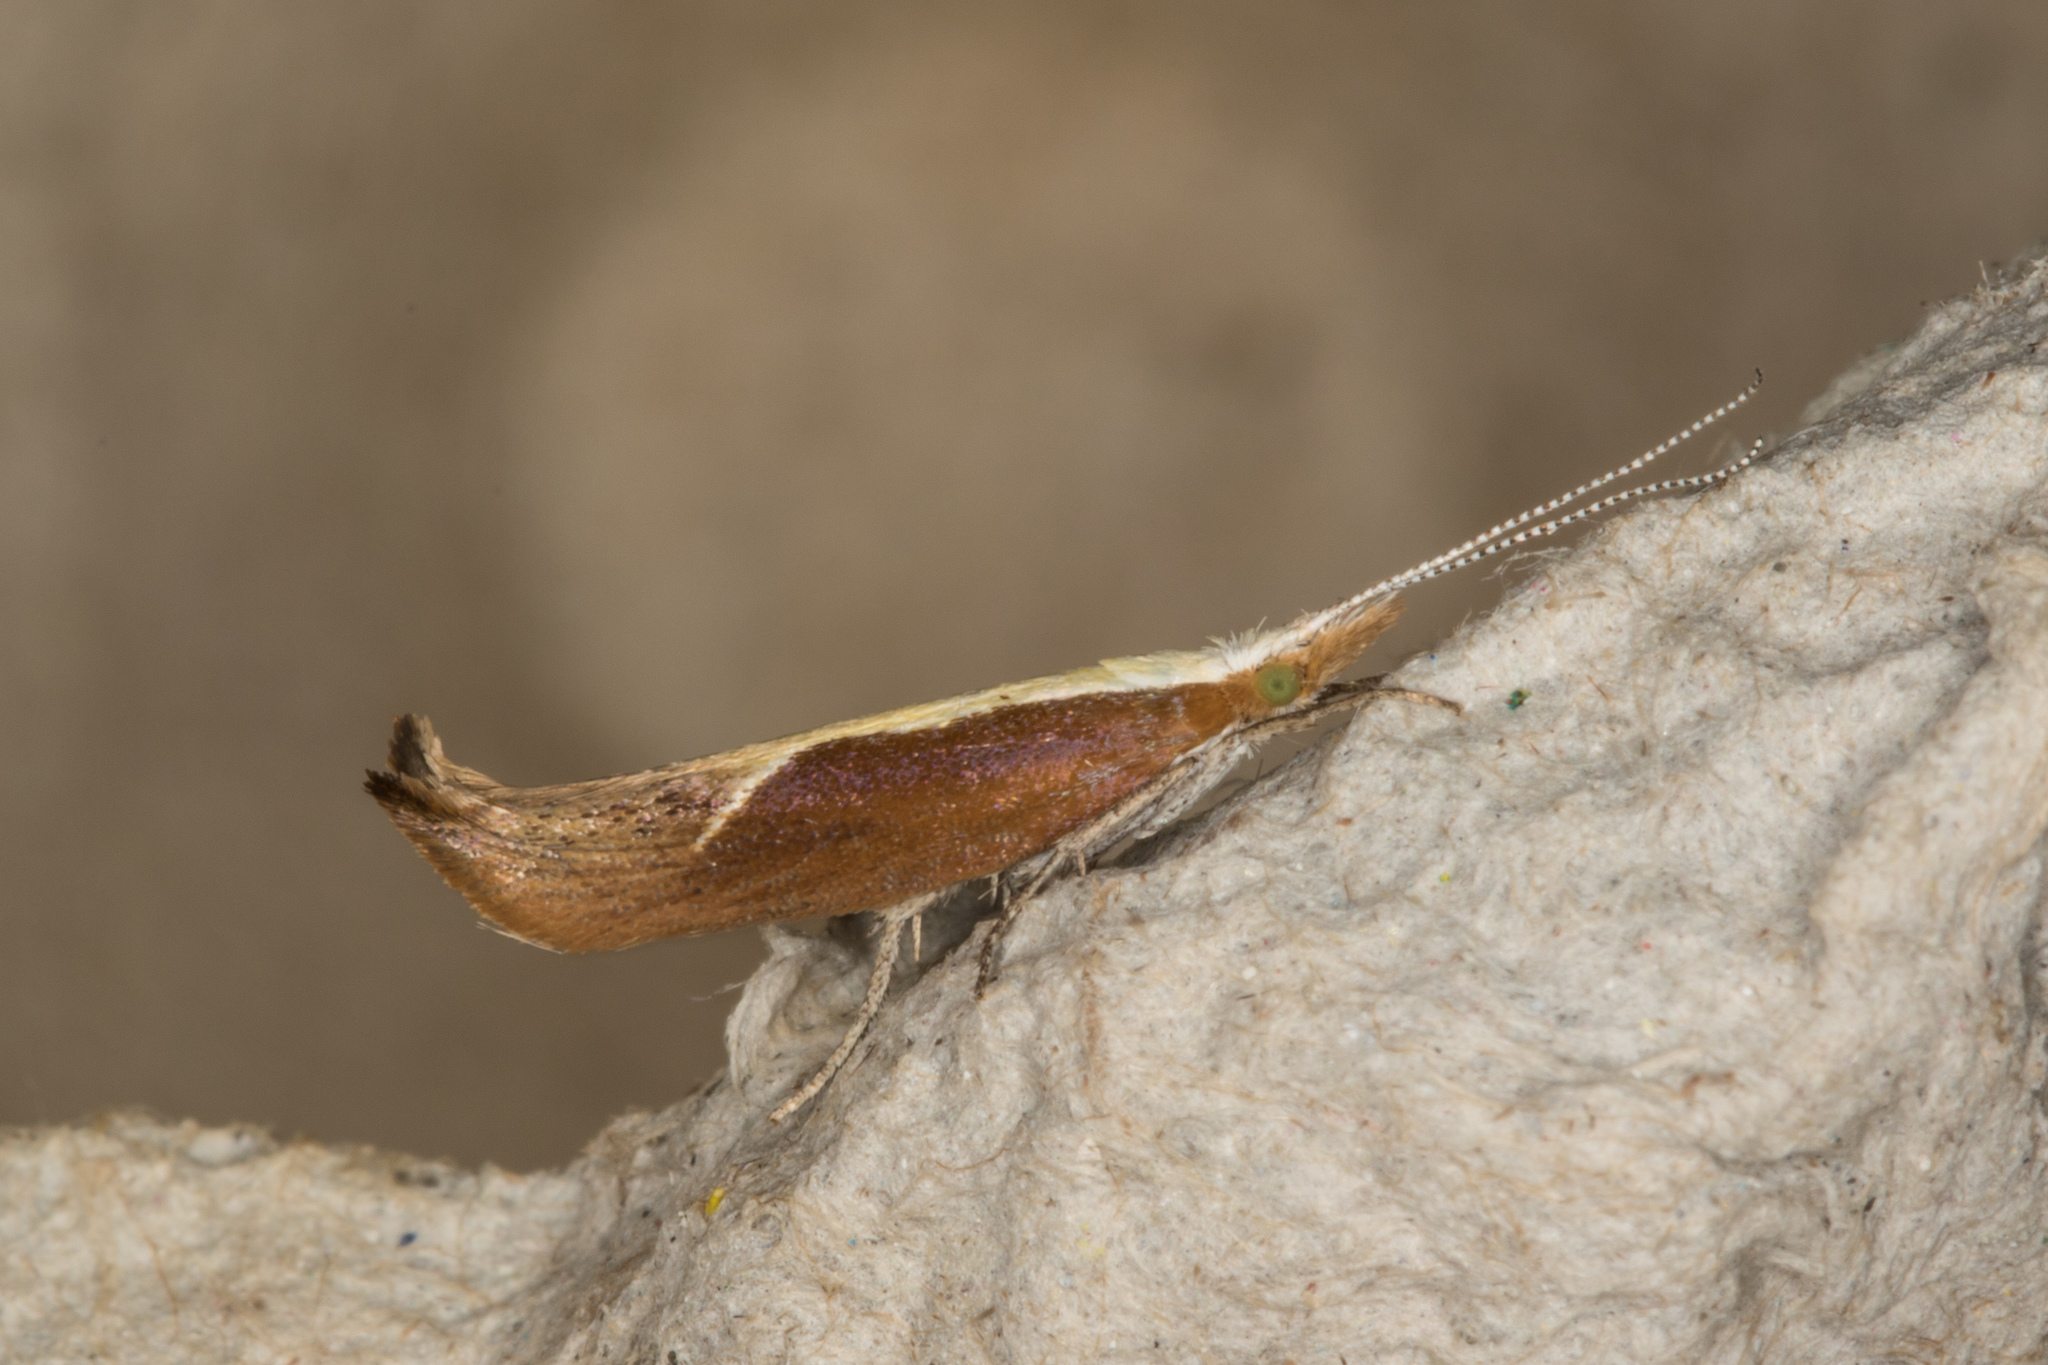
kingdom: Animalia
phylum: Arthropoda
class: Insecta
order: Lepidoptera
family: Ypsolophidae
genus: Ypsolopha
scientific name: Ypsolopha dentella
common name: Honeysuckle moth
